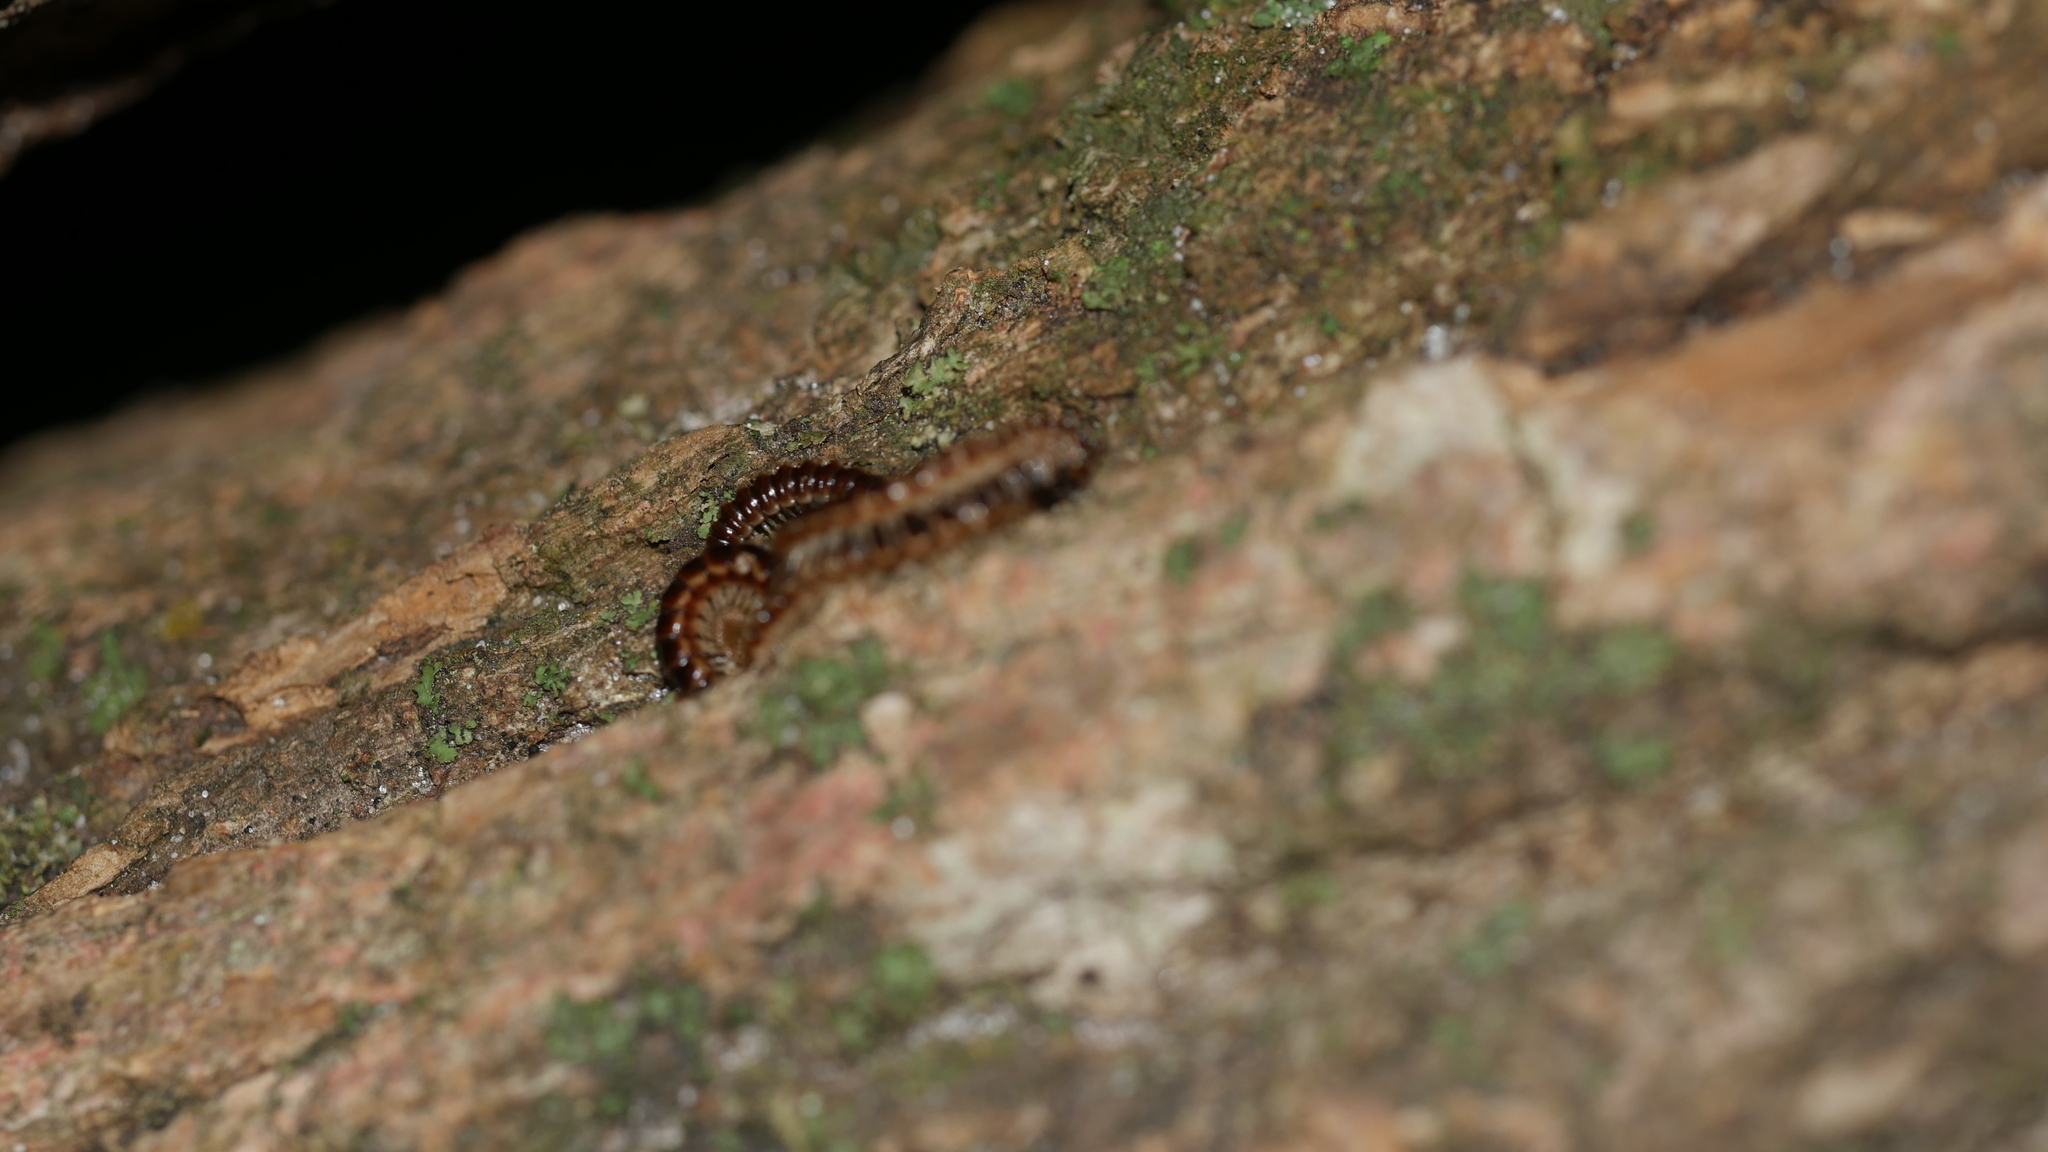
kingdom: Animalia
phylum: Arthropoda
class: Diplopoda
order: Polydesmida
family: Paradoxosomatidae
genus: Oxidus
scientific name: Oxidus gracilis
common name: Greenhouse millipede
